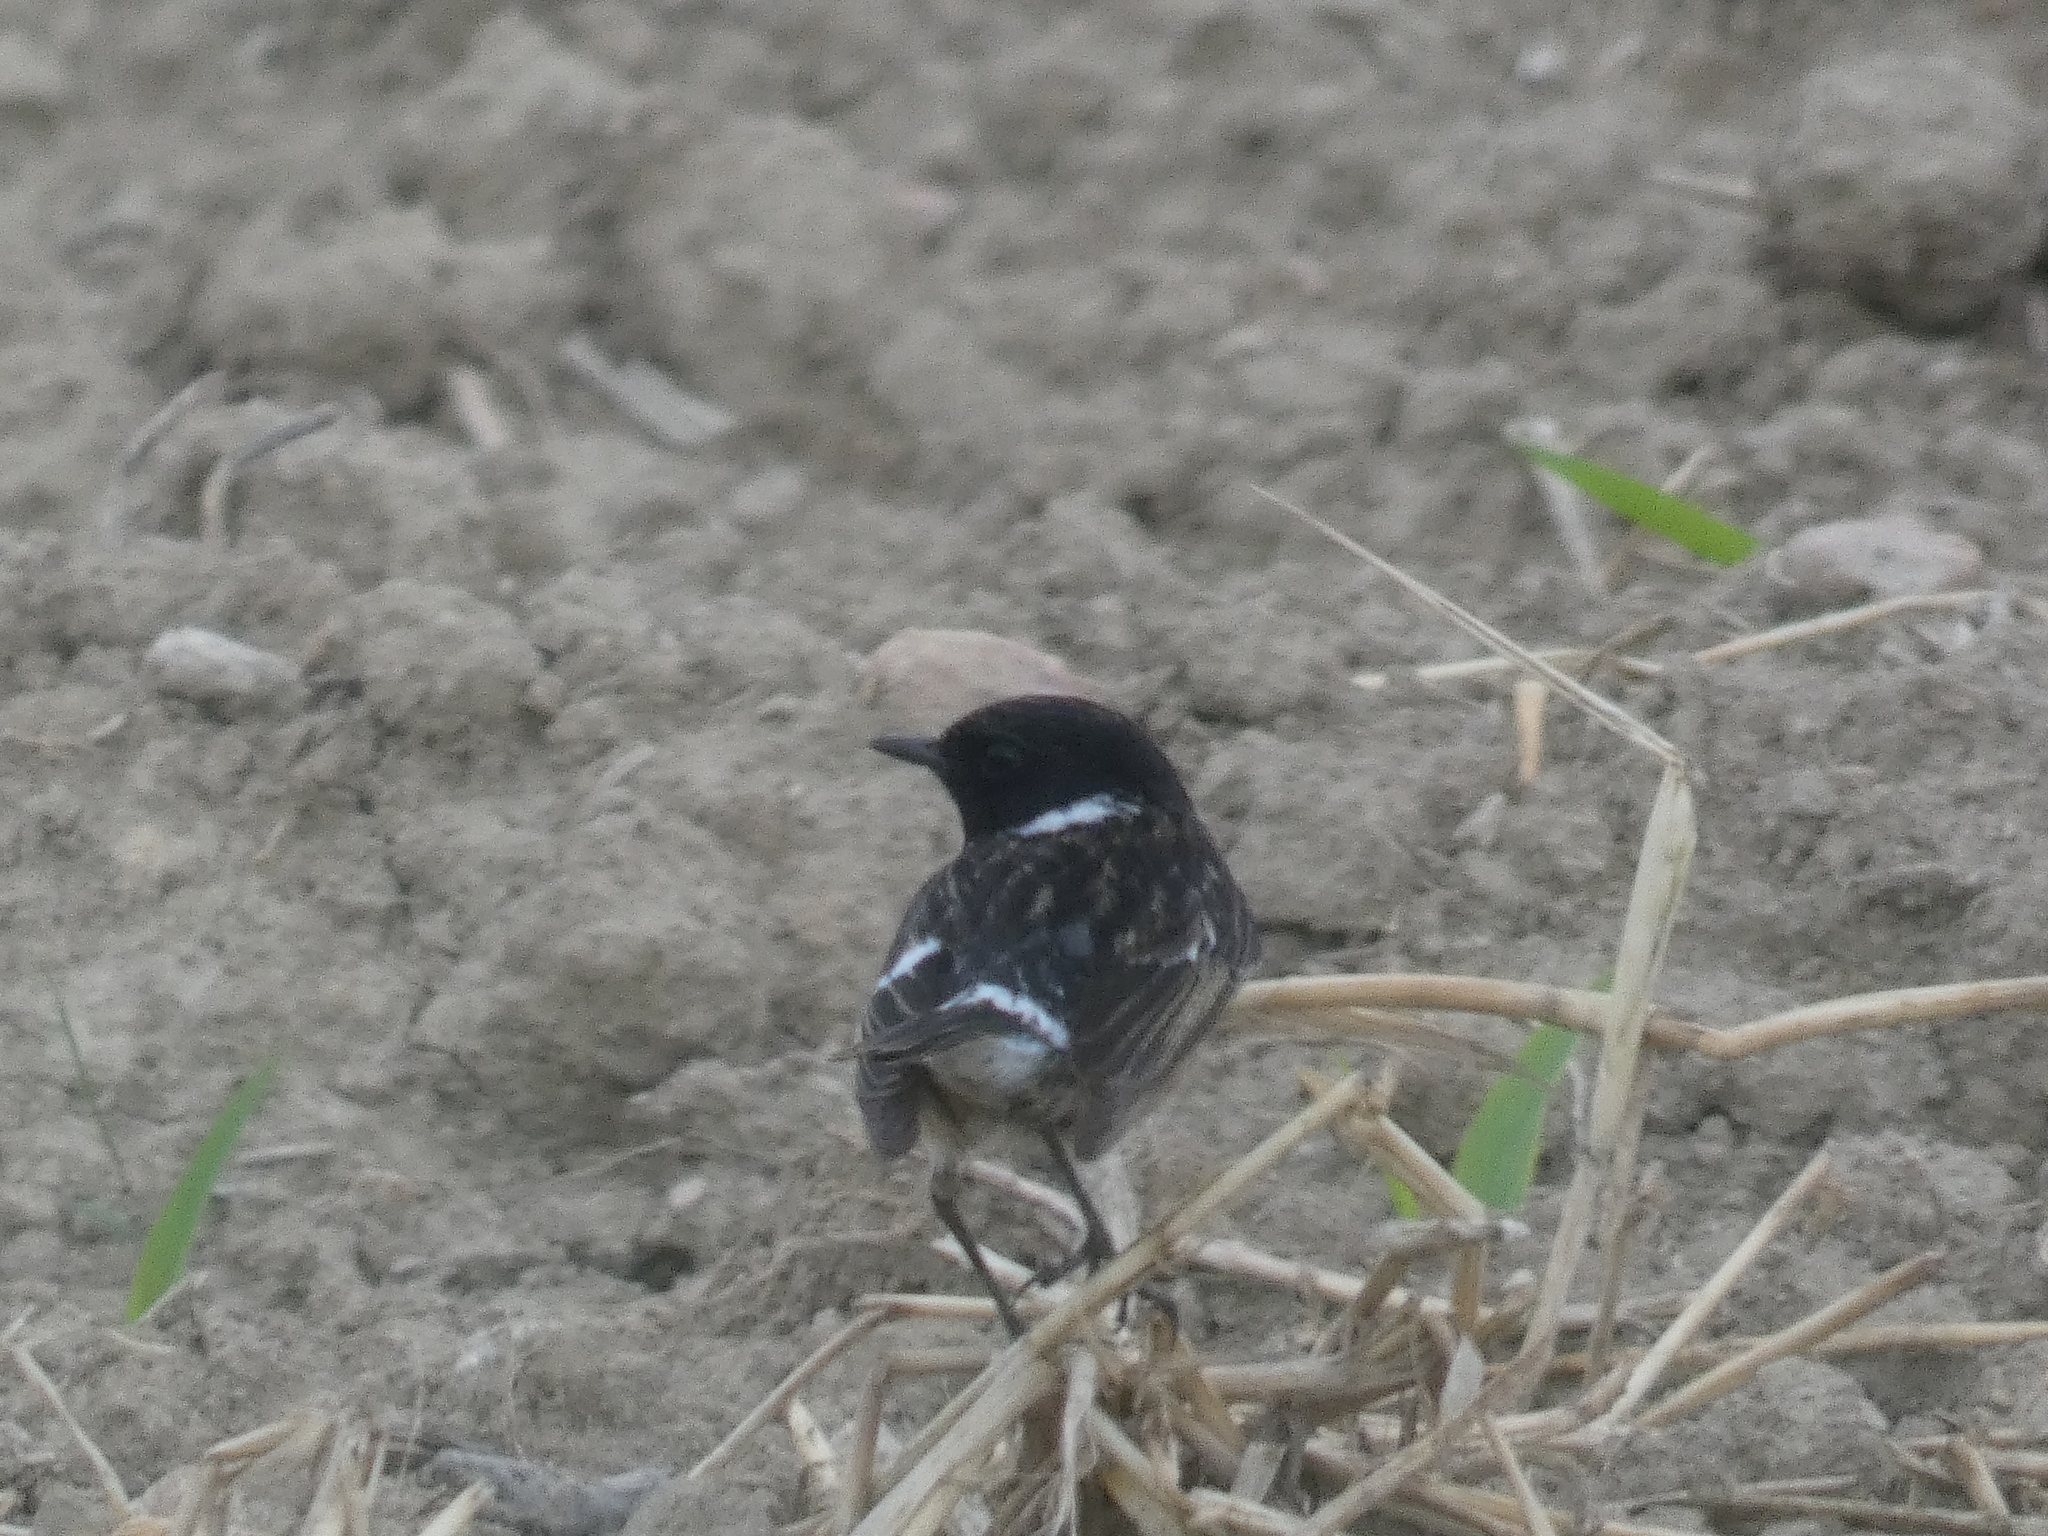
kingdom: Animalia
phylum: Chordata
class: Aves
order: Passeriformes
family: Muscicapidae
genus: Saxicola
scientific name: Saxicola rubicola
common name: European stonechat
